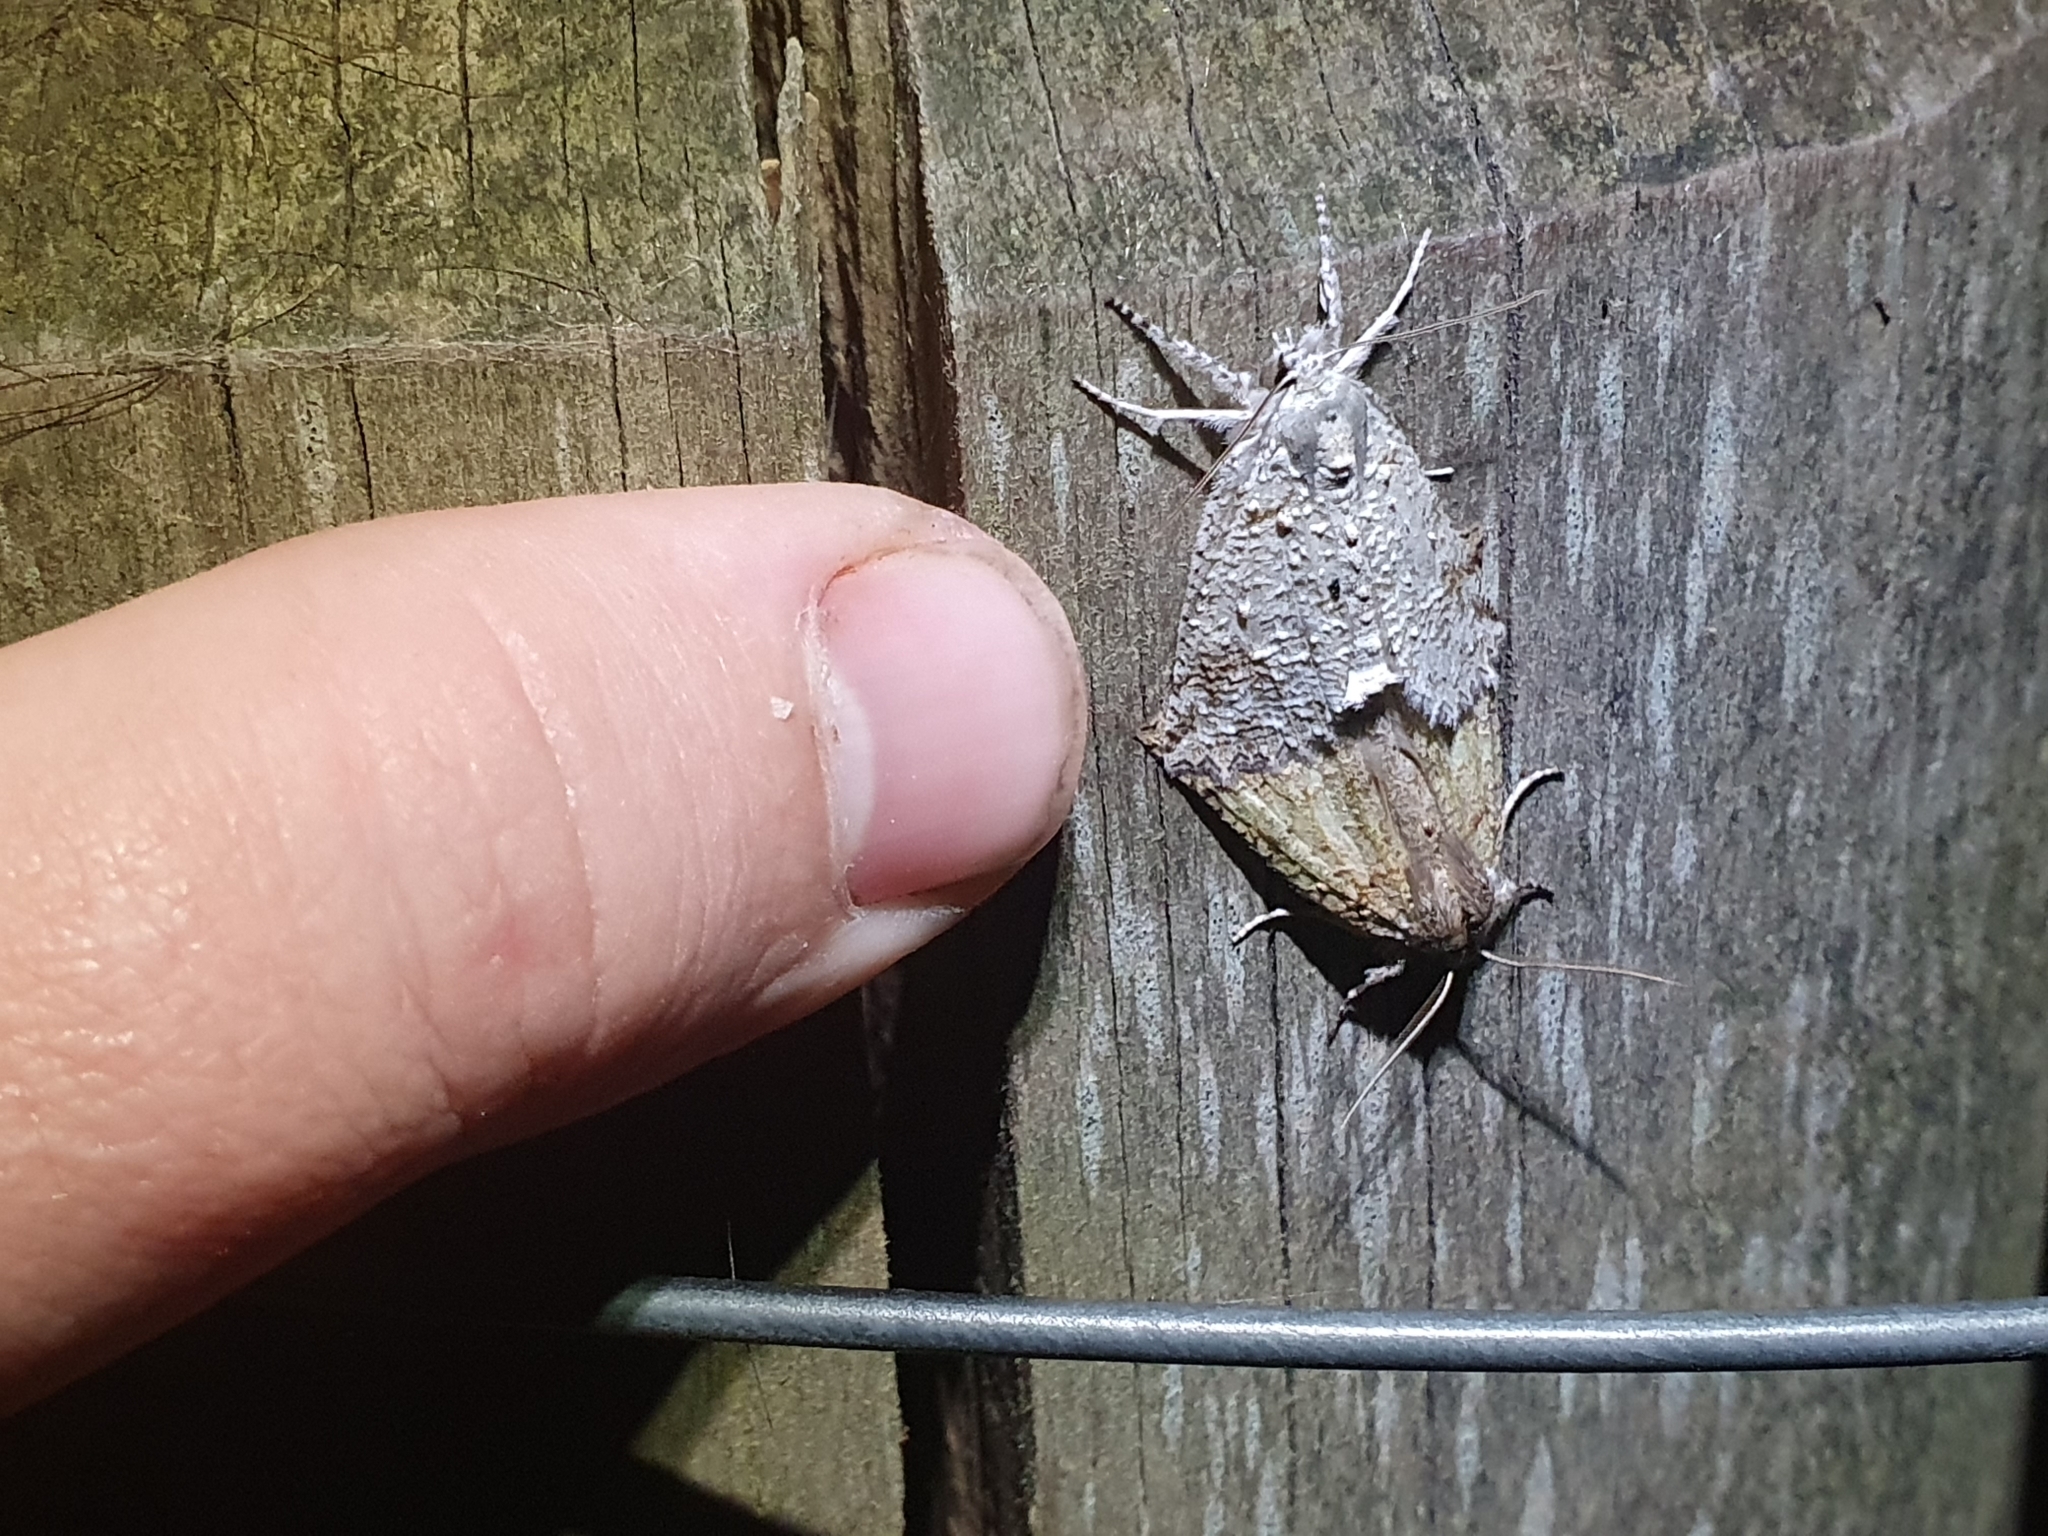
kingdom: Animalia
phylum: Arthropoda
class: Insecta
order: Lepidoptera
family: Geometridae
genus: Declana
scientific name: Declana floccosa
